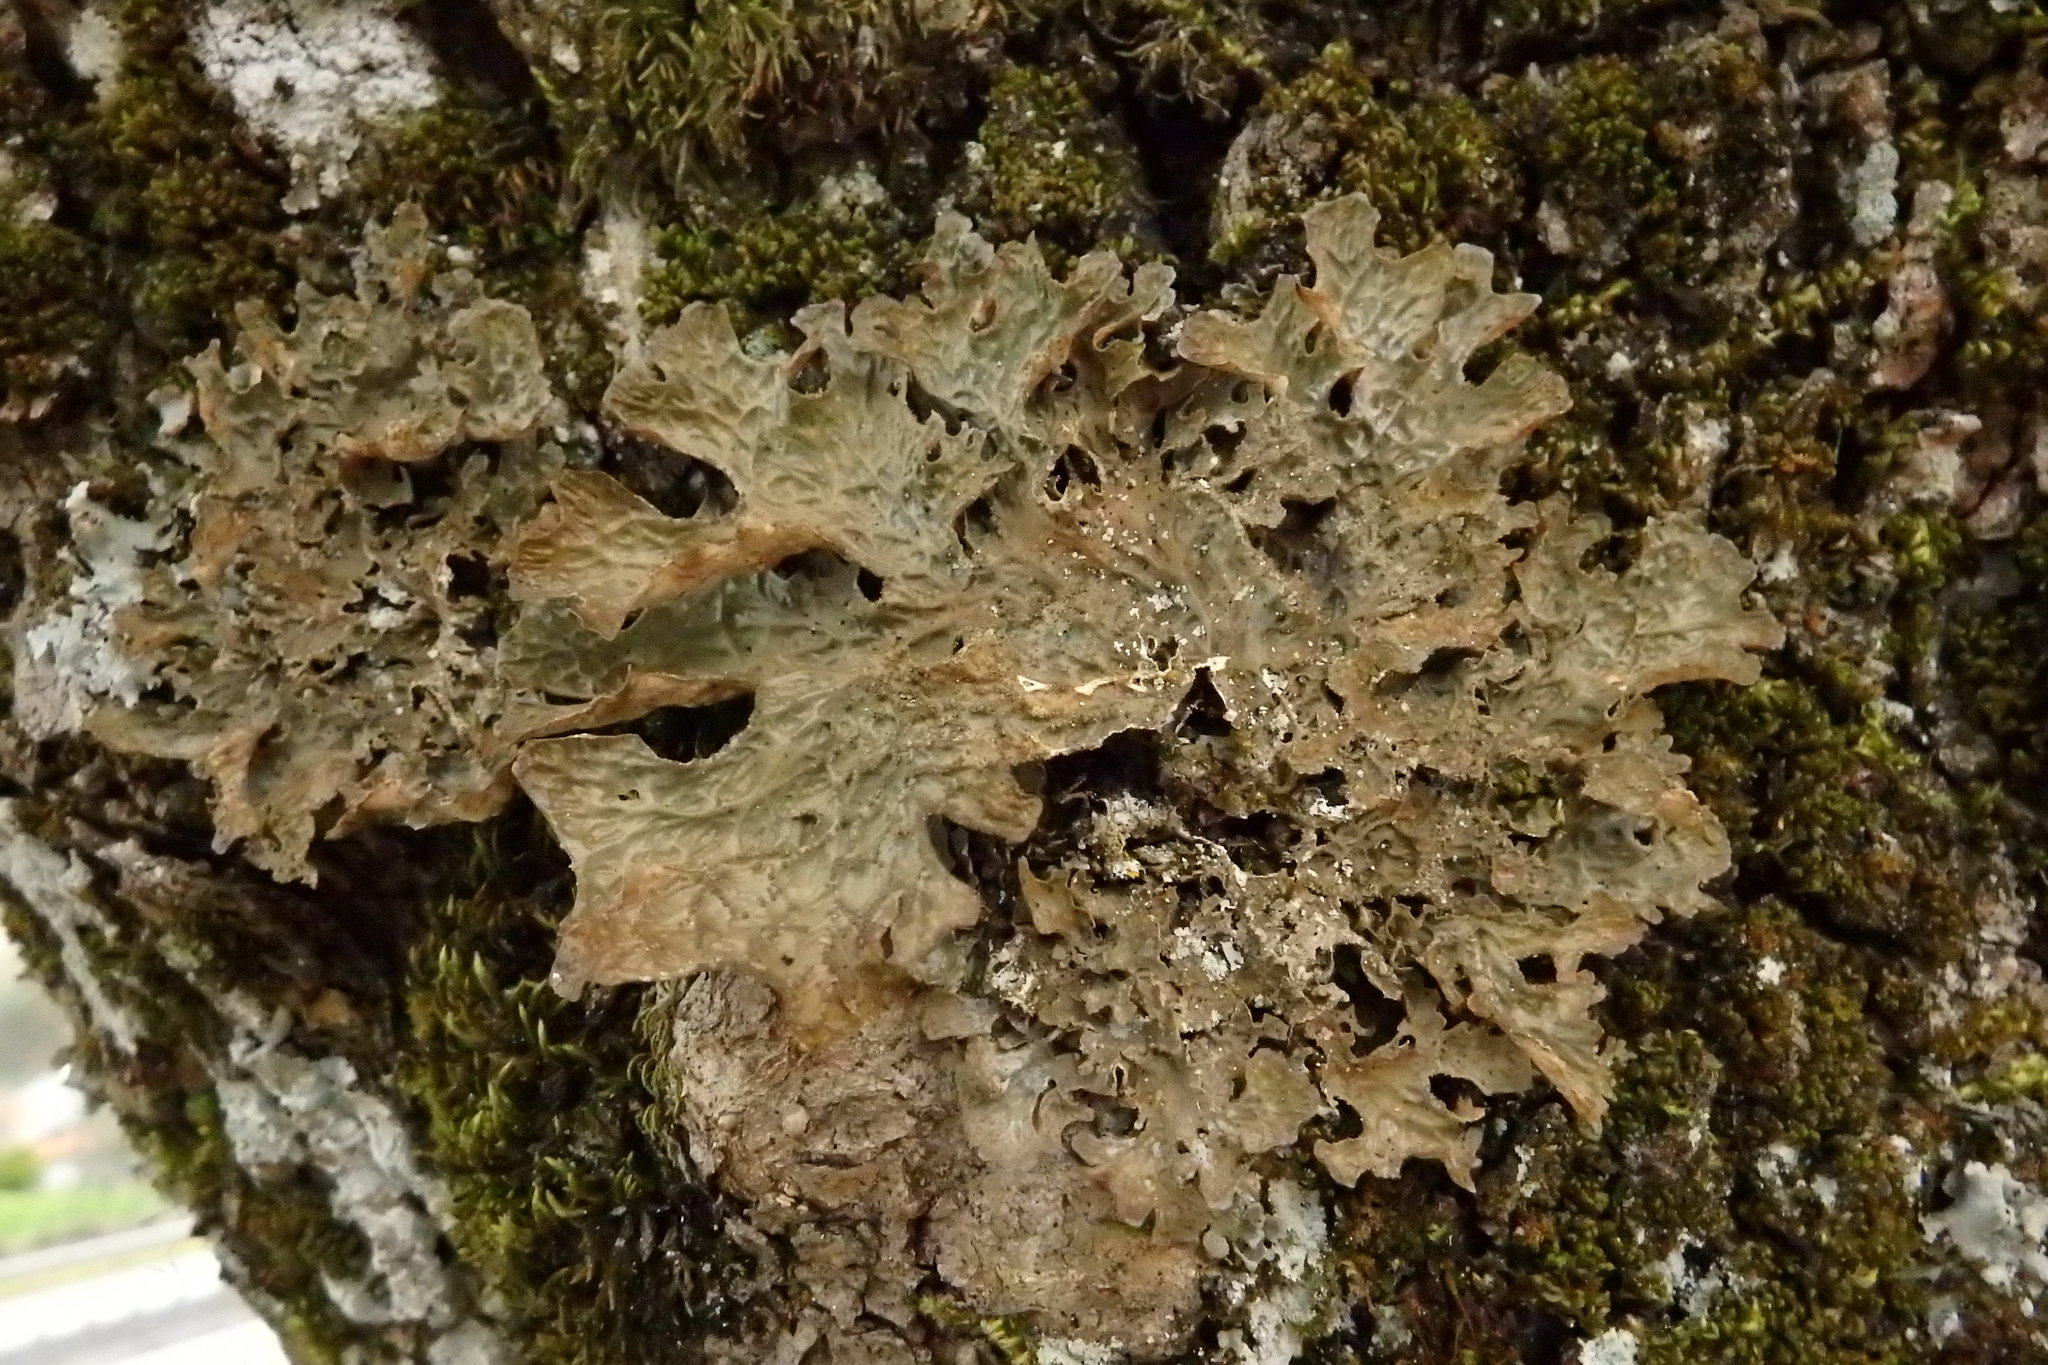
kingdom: Fungi
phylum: Ascomycota
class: Lecanoromycetes
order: Peltigerales
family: Lobariaceae
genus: Lobaria
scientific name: Lobaria pulmonaria
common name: Lungwort
